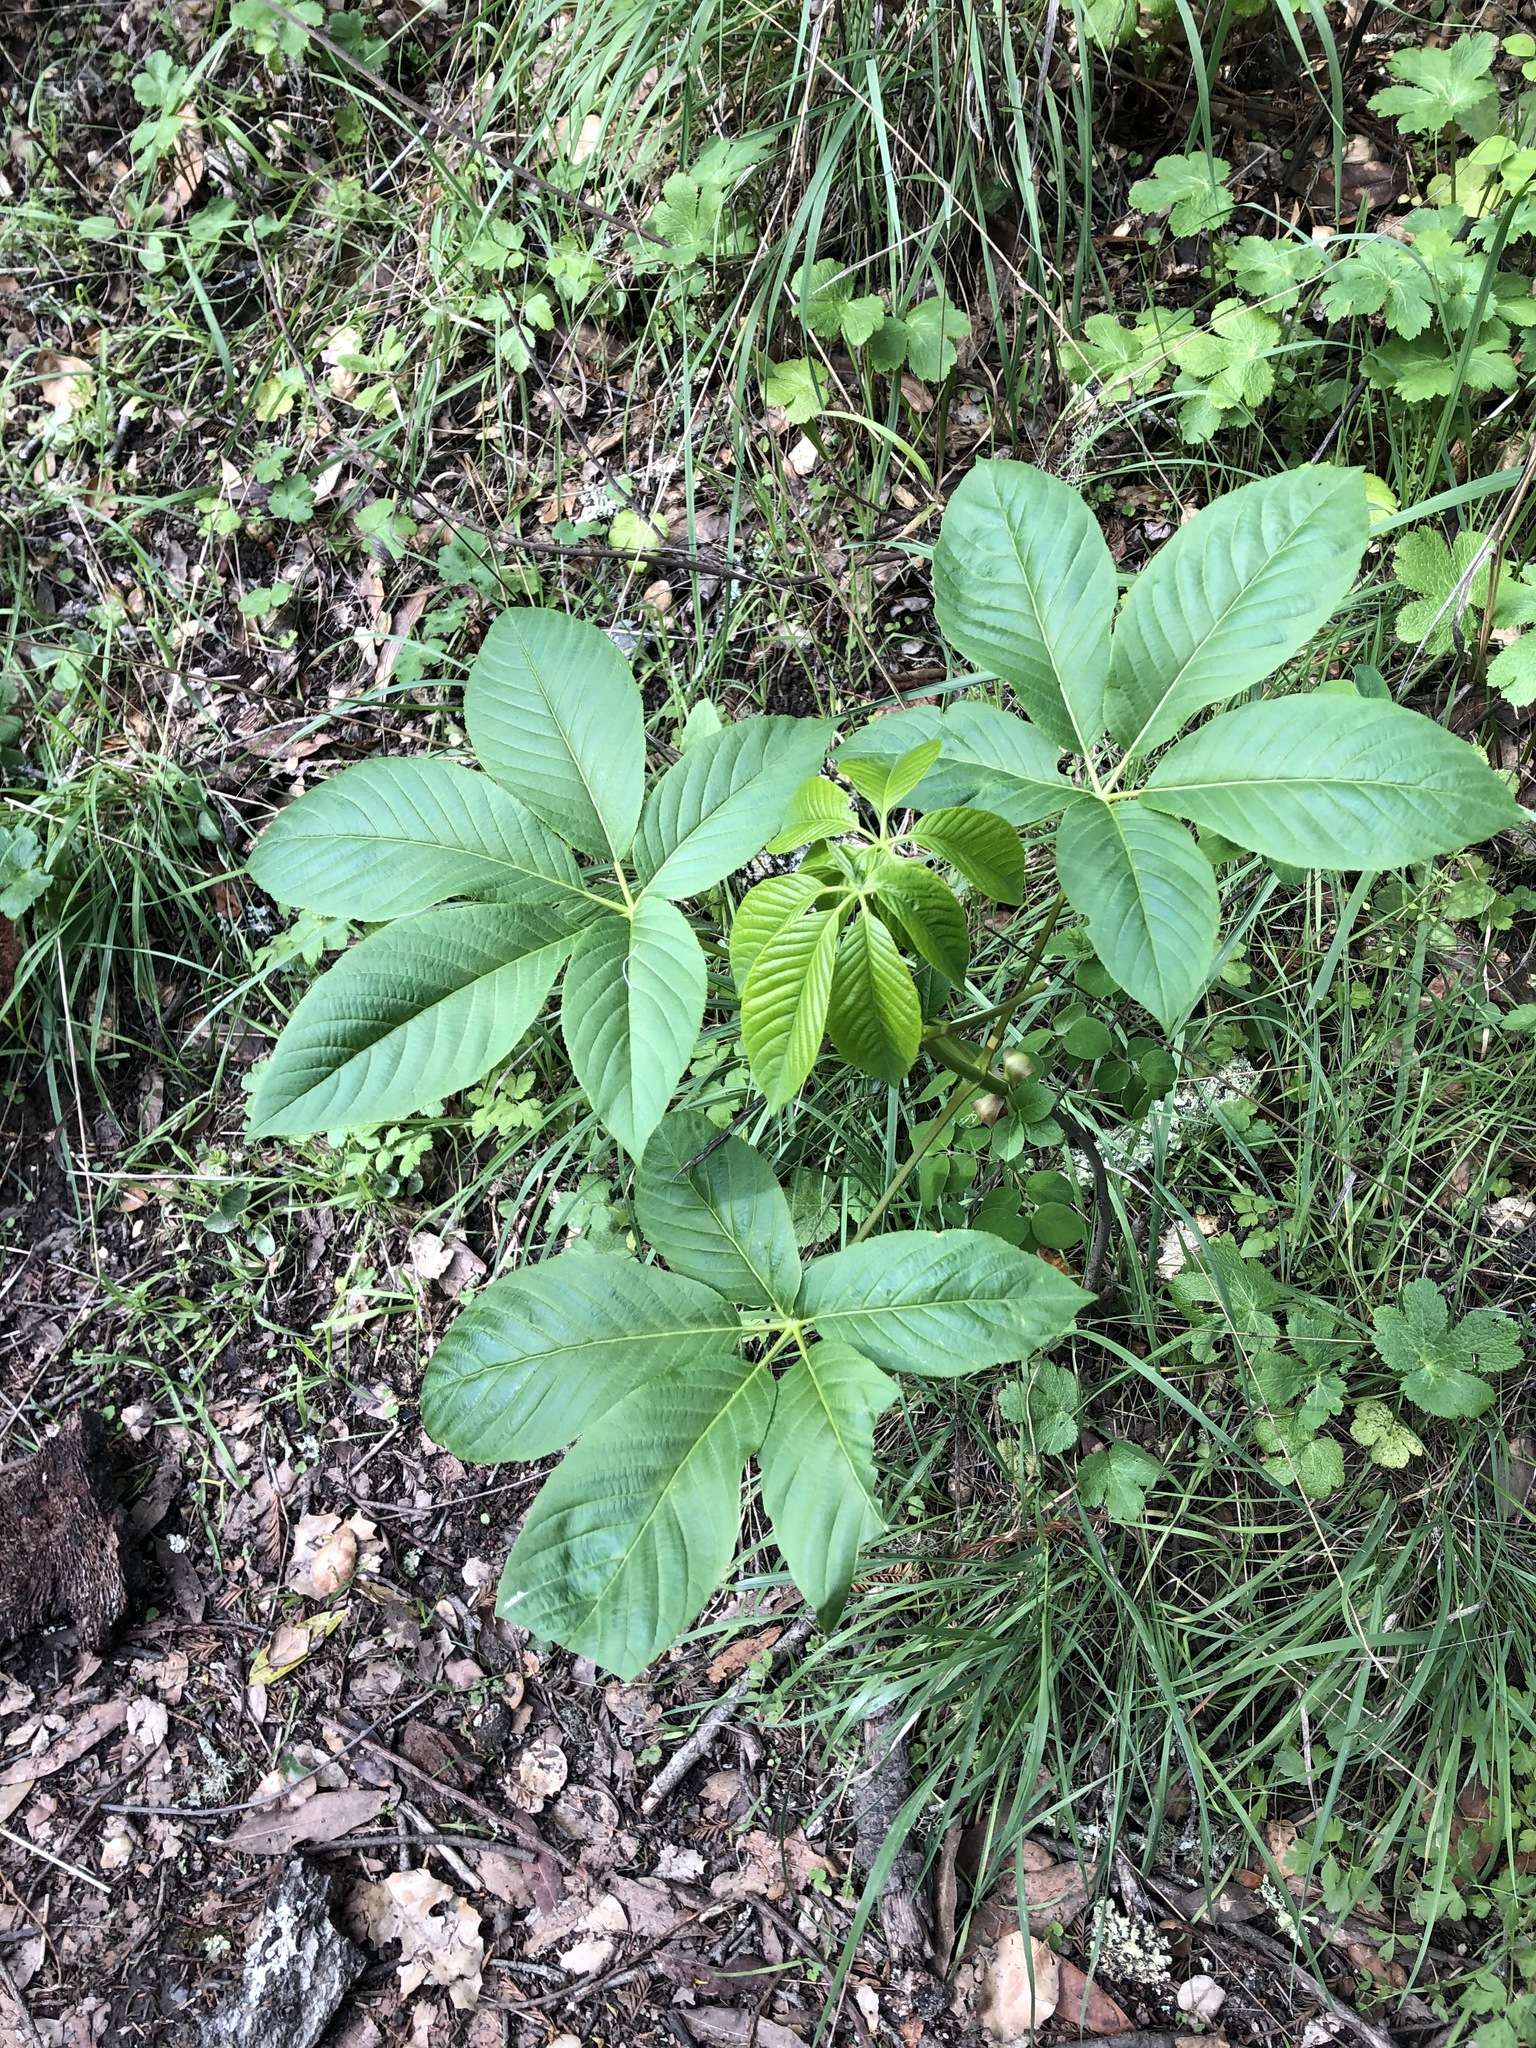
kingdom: Plantae
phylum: Tracheophyta
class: Magnoliopsida
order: Sapindales
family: Sapindaceae
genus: Aesculus
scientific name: Aesculus californica
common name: California buckeye
